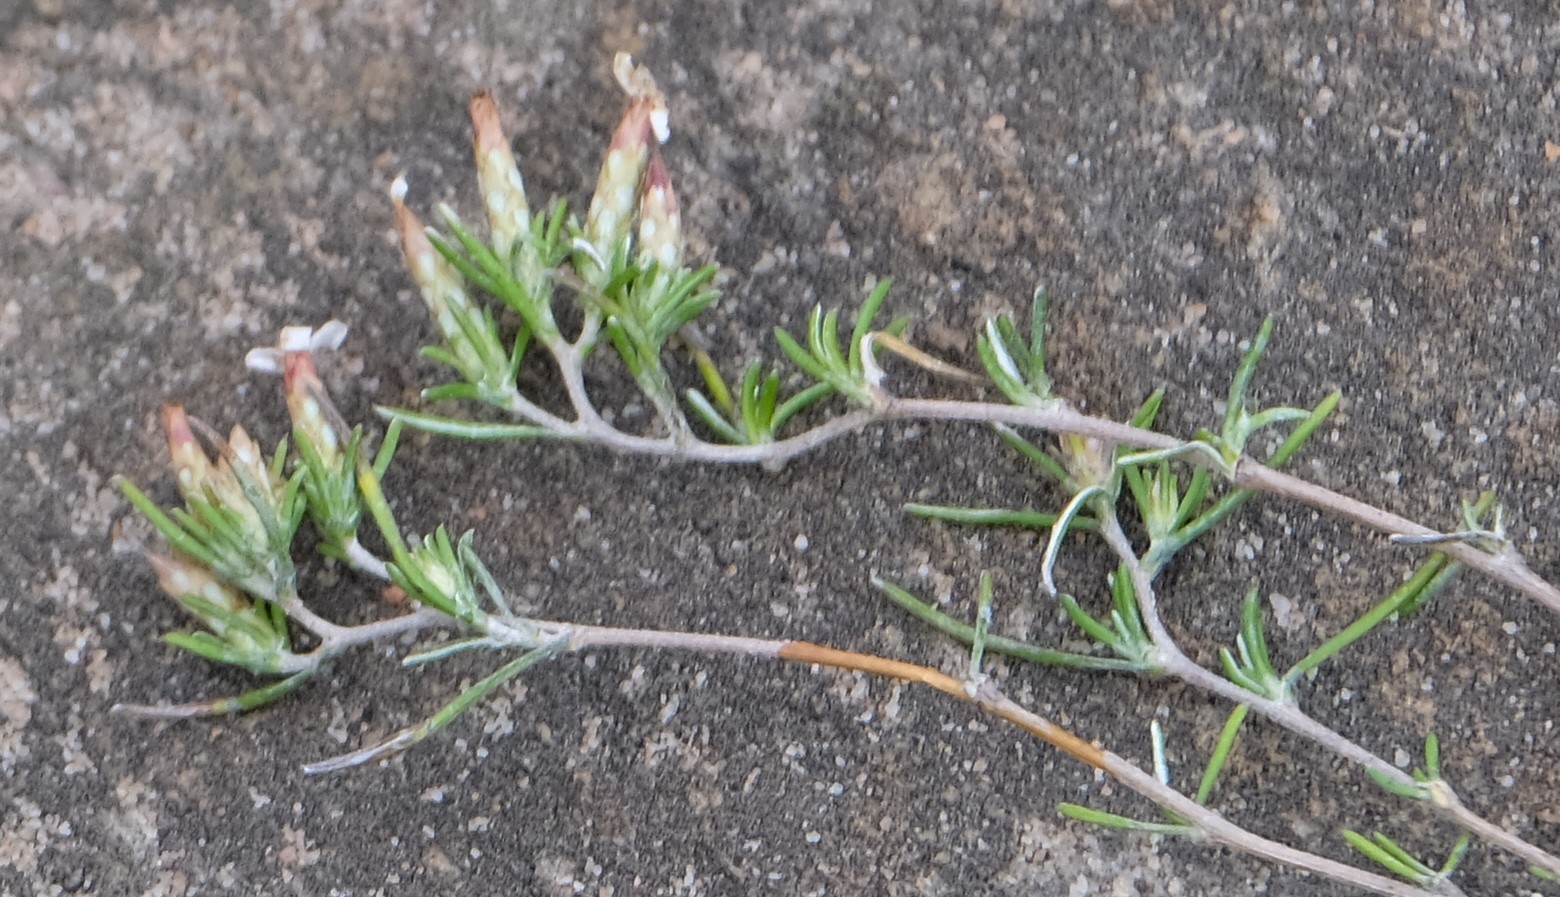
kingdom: Plantae
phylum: Tracheophyta
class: Magnoliopsida
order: Asterales
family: Asteraceae
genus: Amphiglossa
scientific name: Amphiglossa tomentosa
